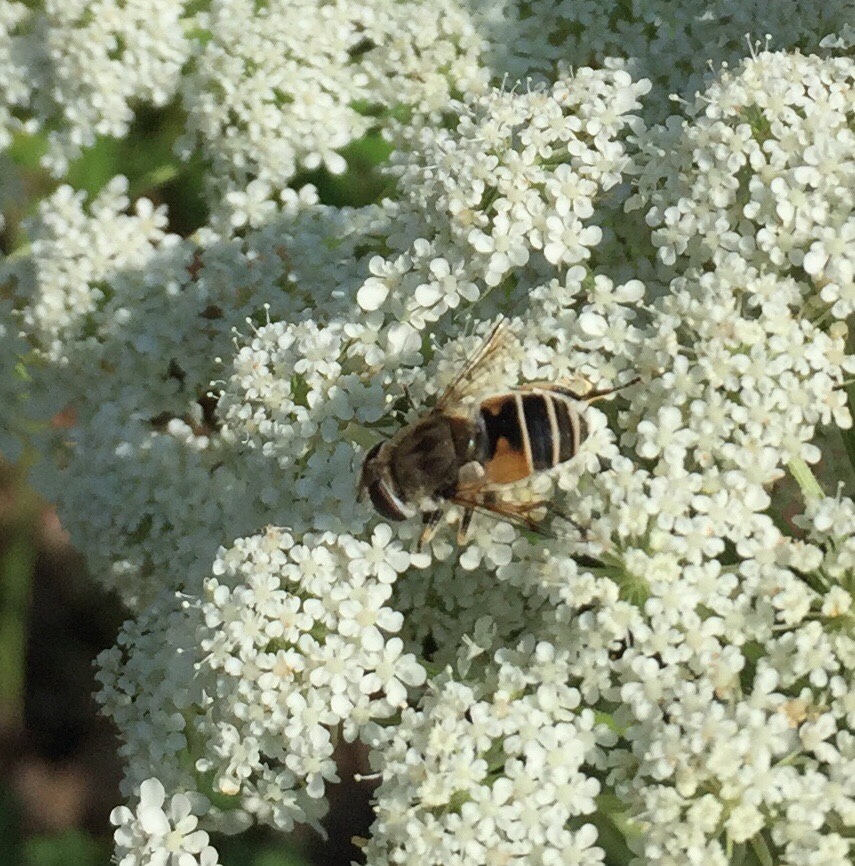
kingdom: Animalia
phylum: Arthropoda
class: Insecta
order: Diptera
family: Syrphidae
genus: Eristalis
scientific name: Eristalis arbustorum
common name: Hover fly
